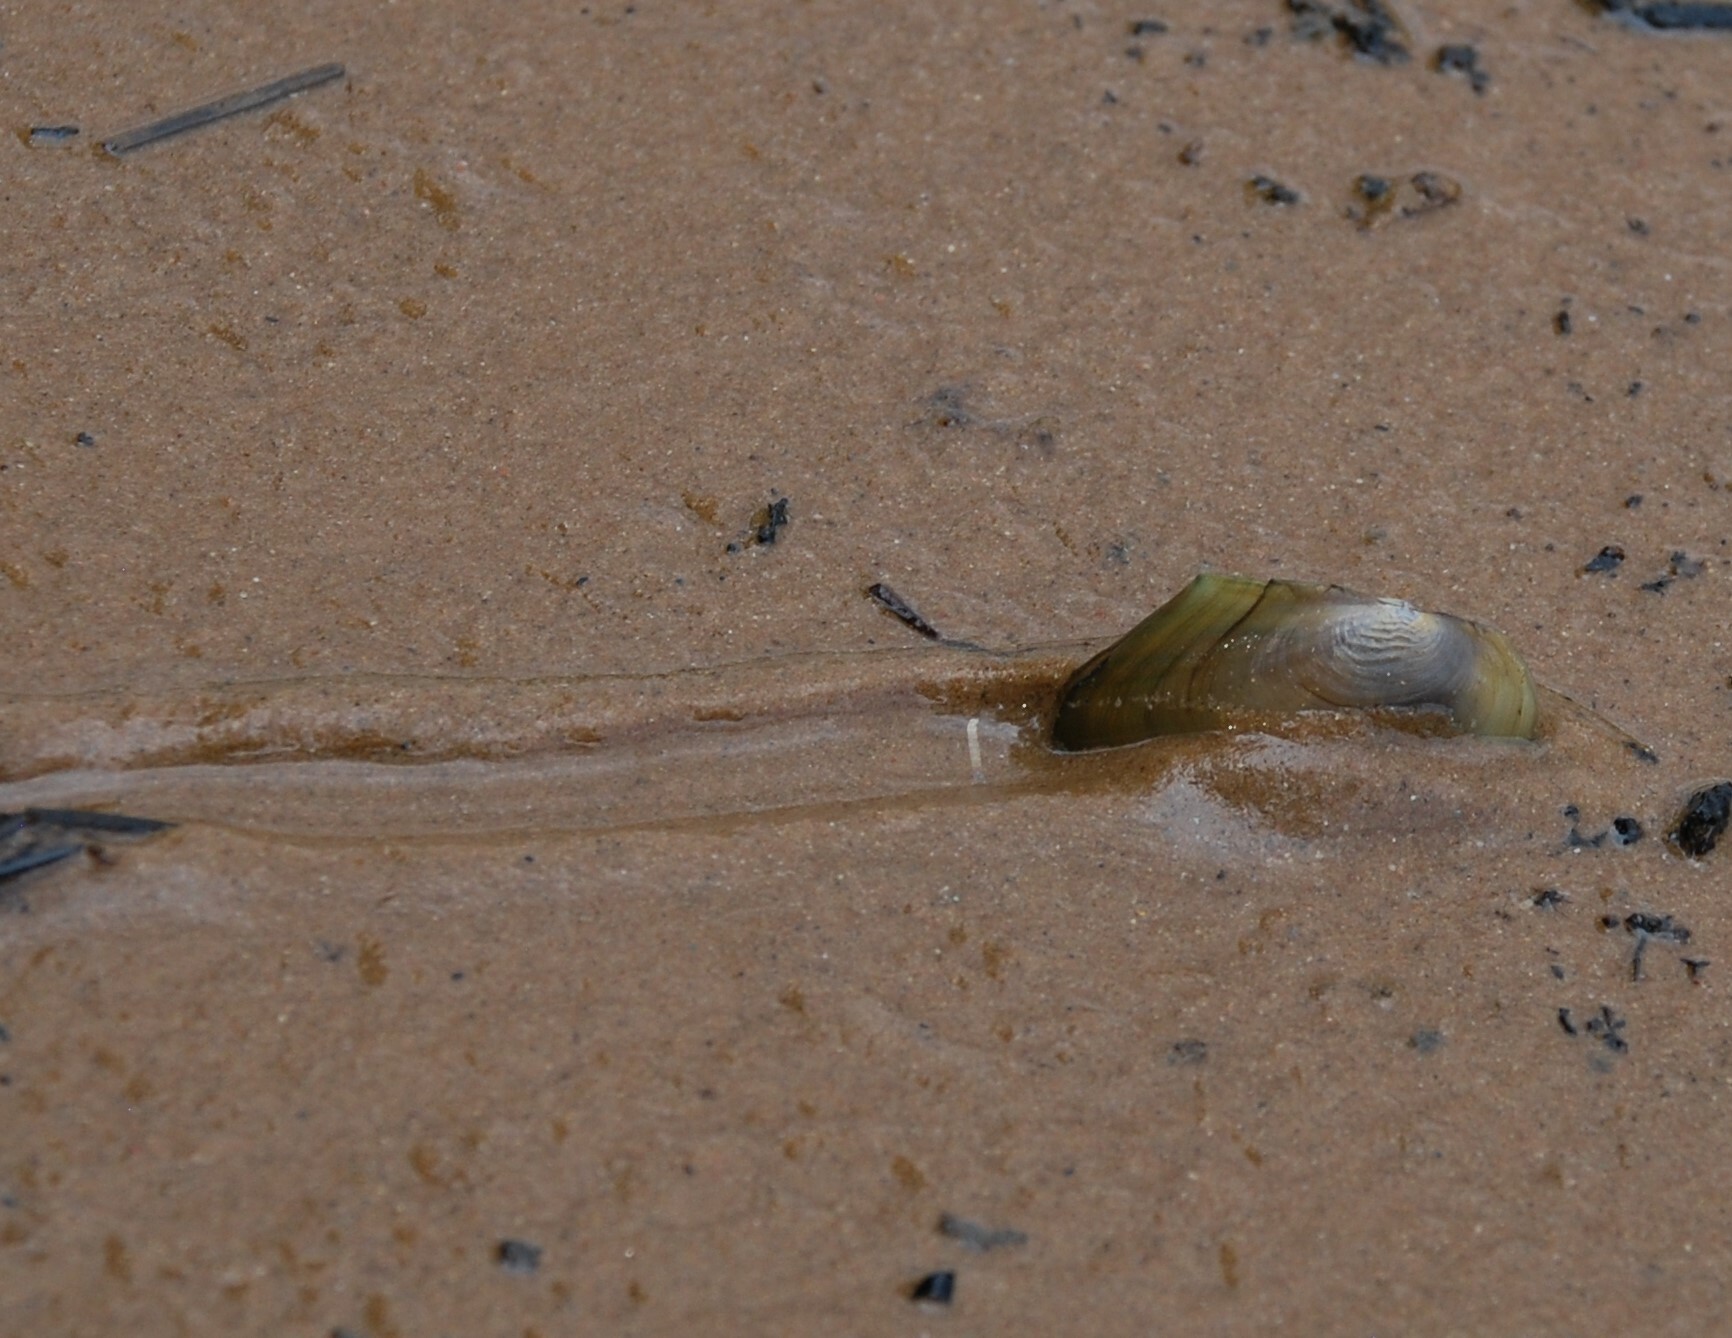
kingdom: Animalia
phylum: Mollusca
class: Bivalvia
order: Unionida
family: Unionidae
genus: Anodonta
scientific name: Anodonta anatina
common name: Duck mussel
